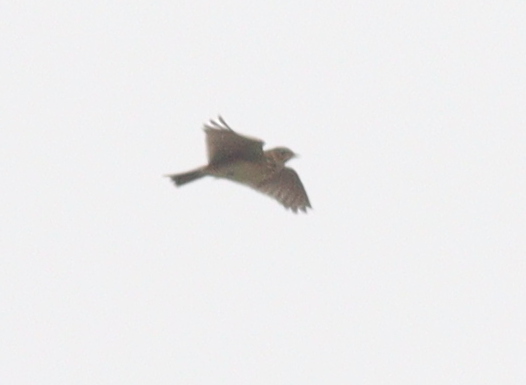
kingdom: Animalia
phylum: Chordata
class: Aves
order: Passeriformes
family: Alaudidae
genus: Alauda
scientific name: Alauda arvensis
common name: Eurasian skylark
